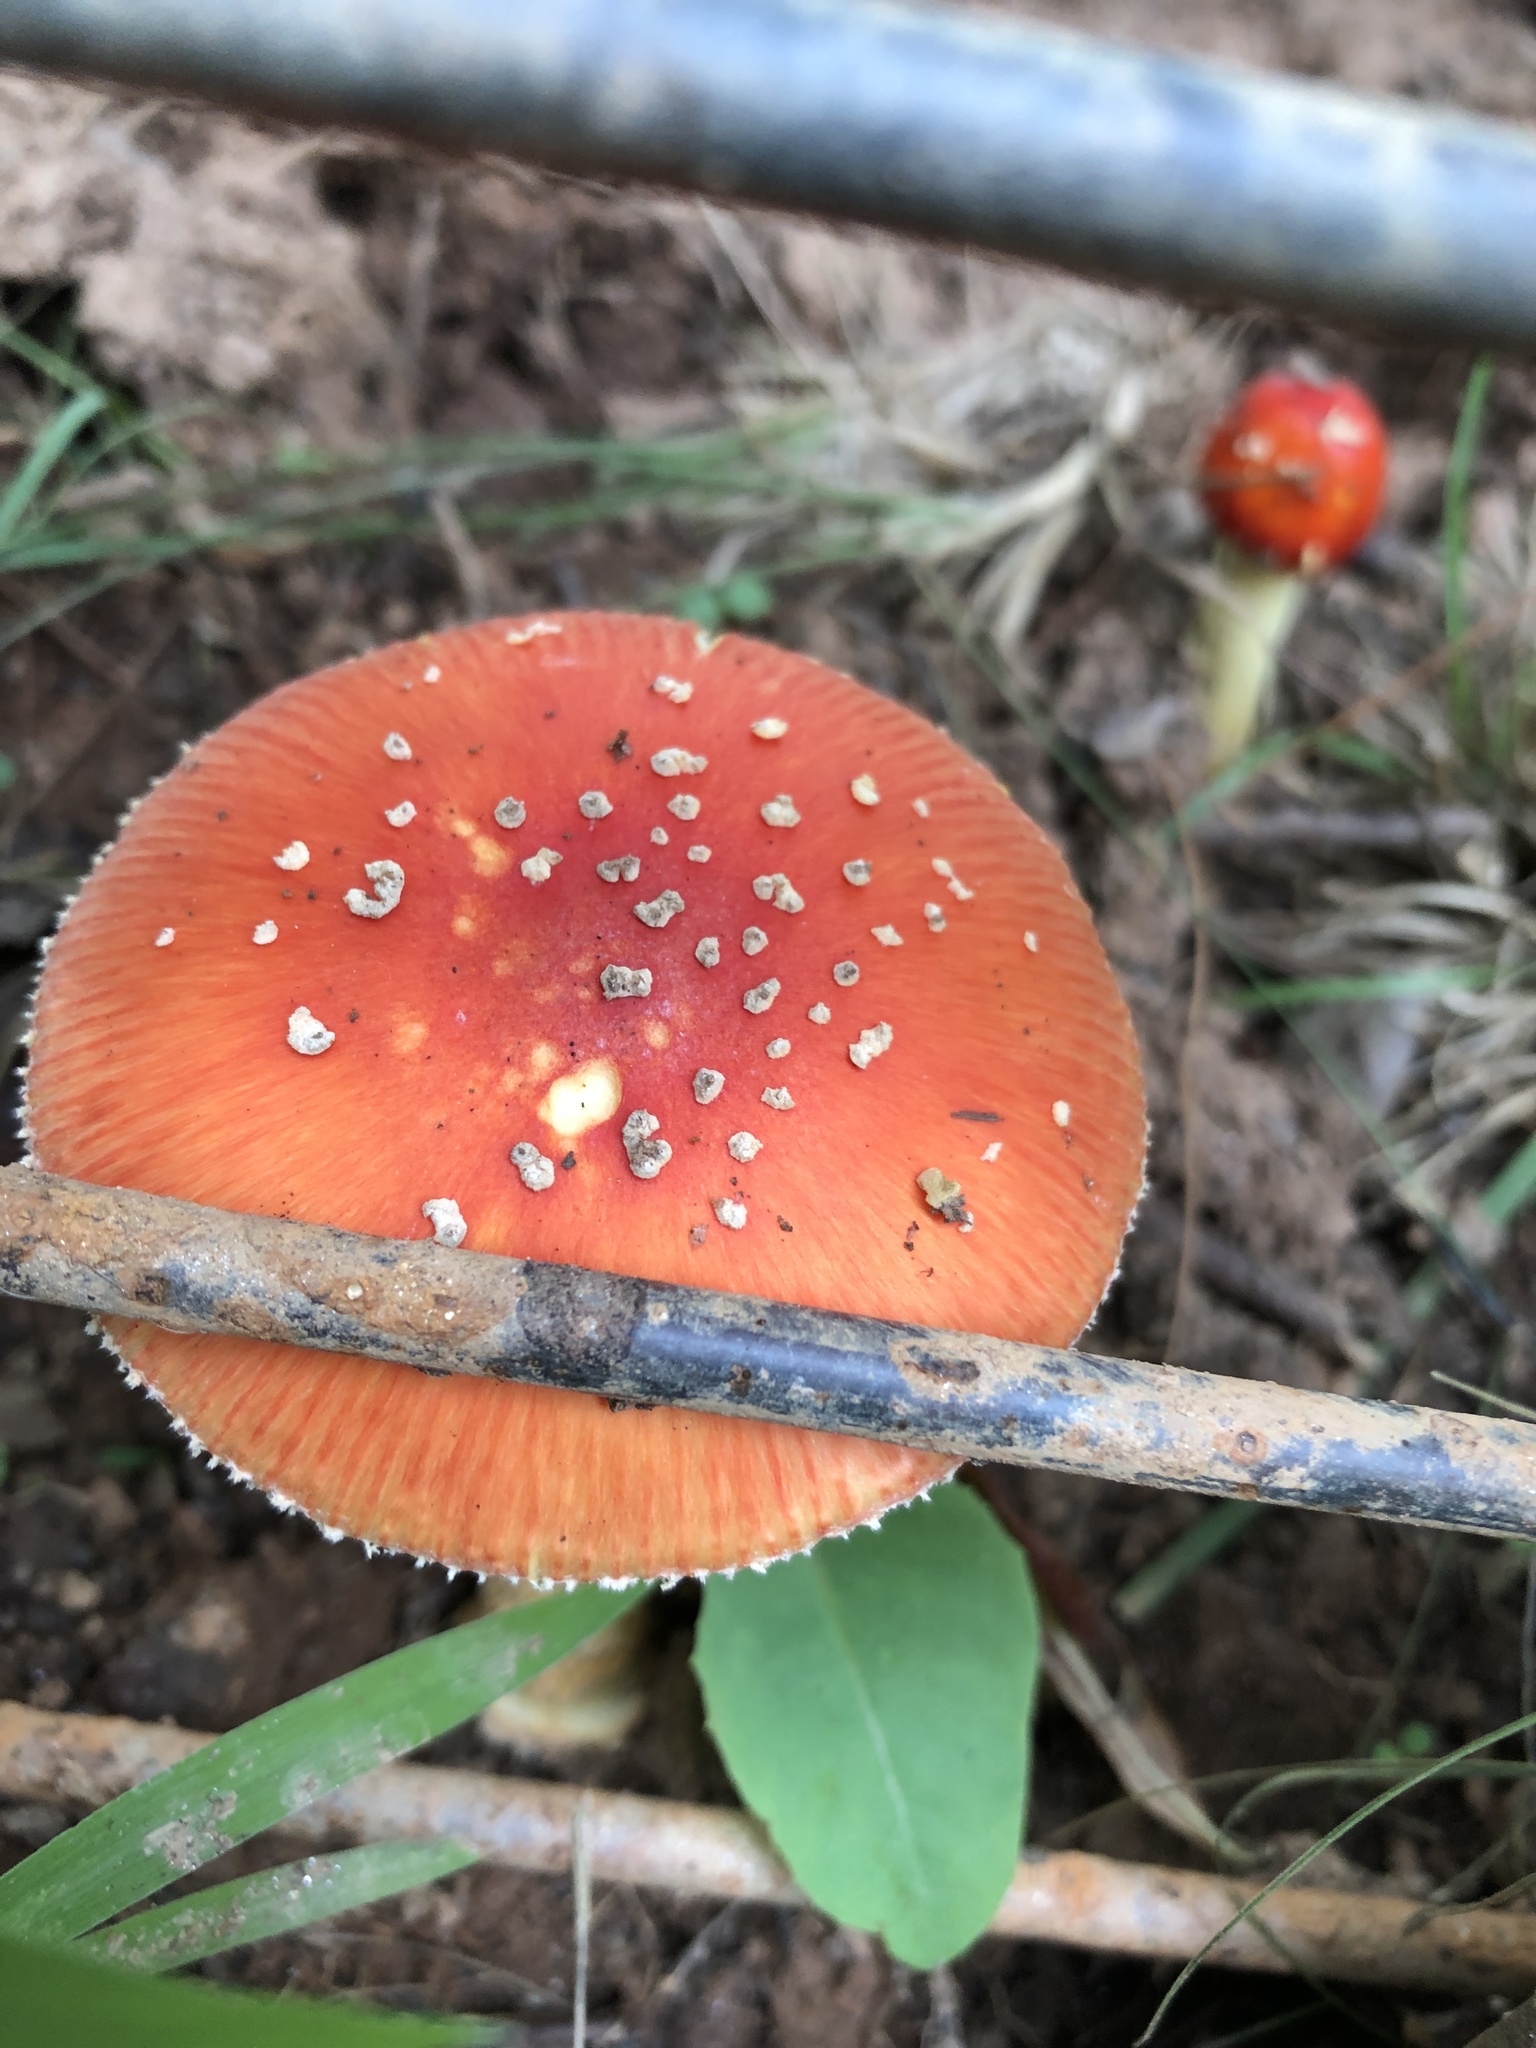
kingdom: Fungi
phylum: Basidiomycota
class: Agaricomycetes
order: Agaricales
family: Amanitaceae
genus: Amanita
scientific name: Amanita parcivolvata
